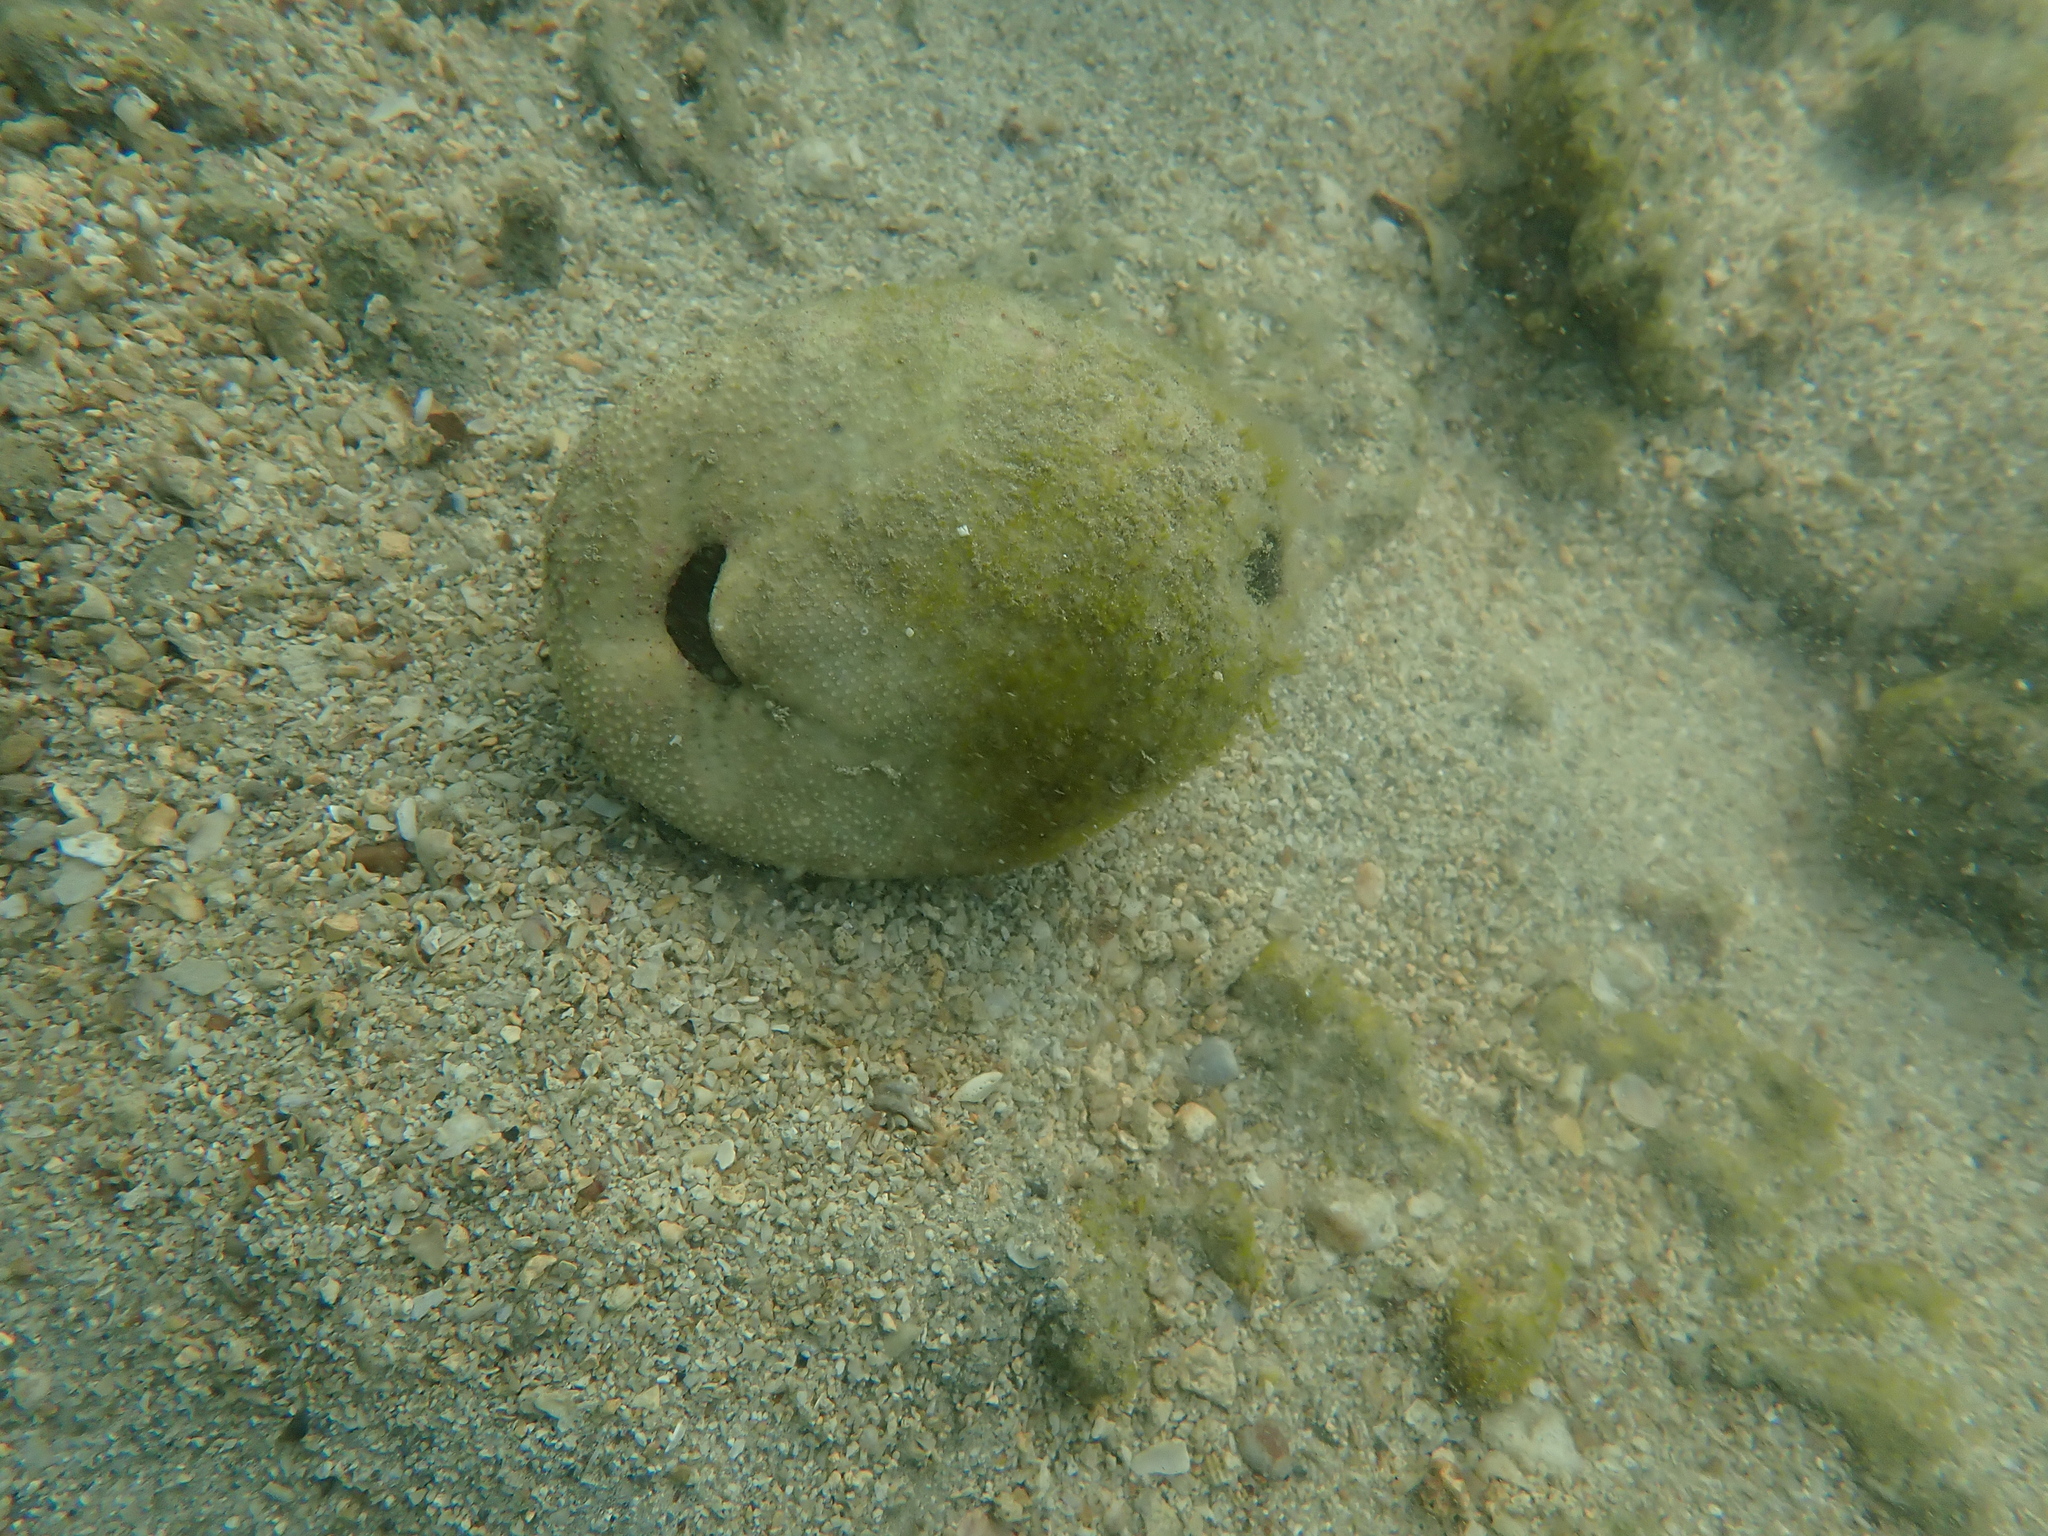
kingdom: Animalia
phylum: Echinodermata
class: Echinoidea
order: Spatangoida
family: Brissidae
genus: Brissus
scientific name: Brissus latecarinatus
